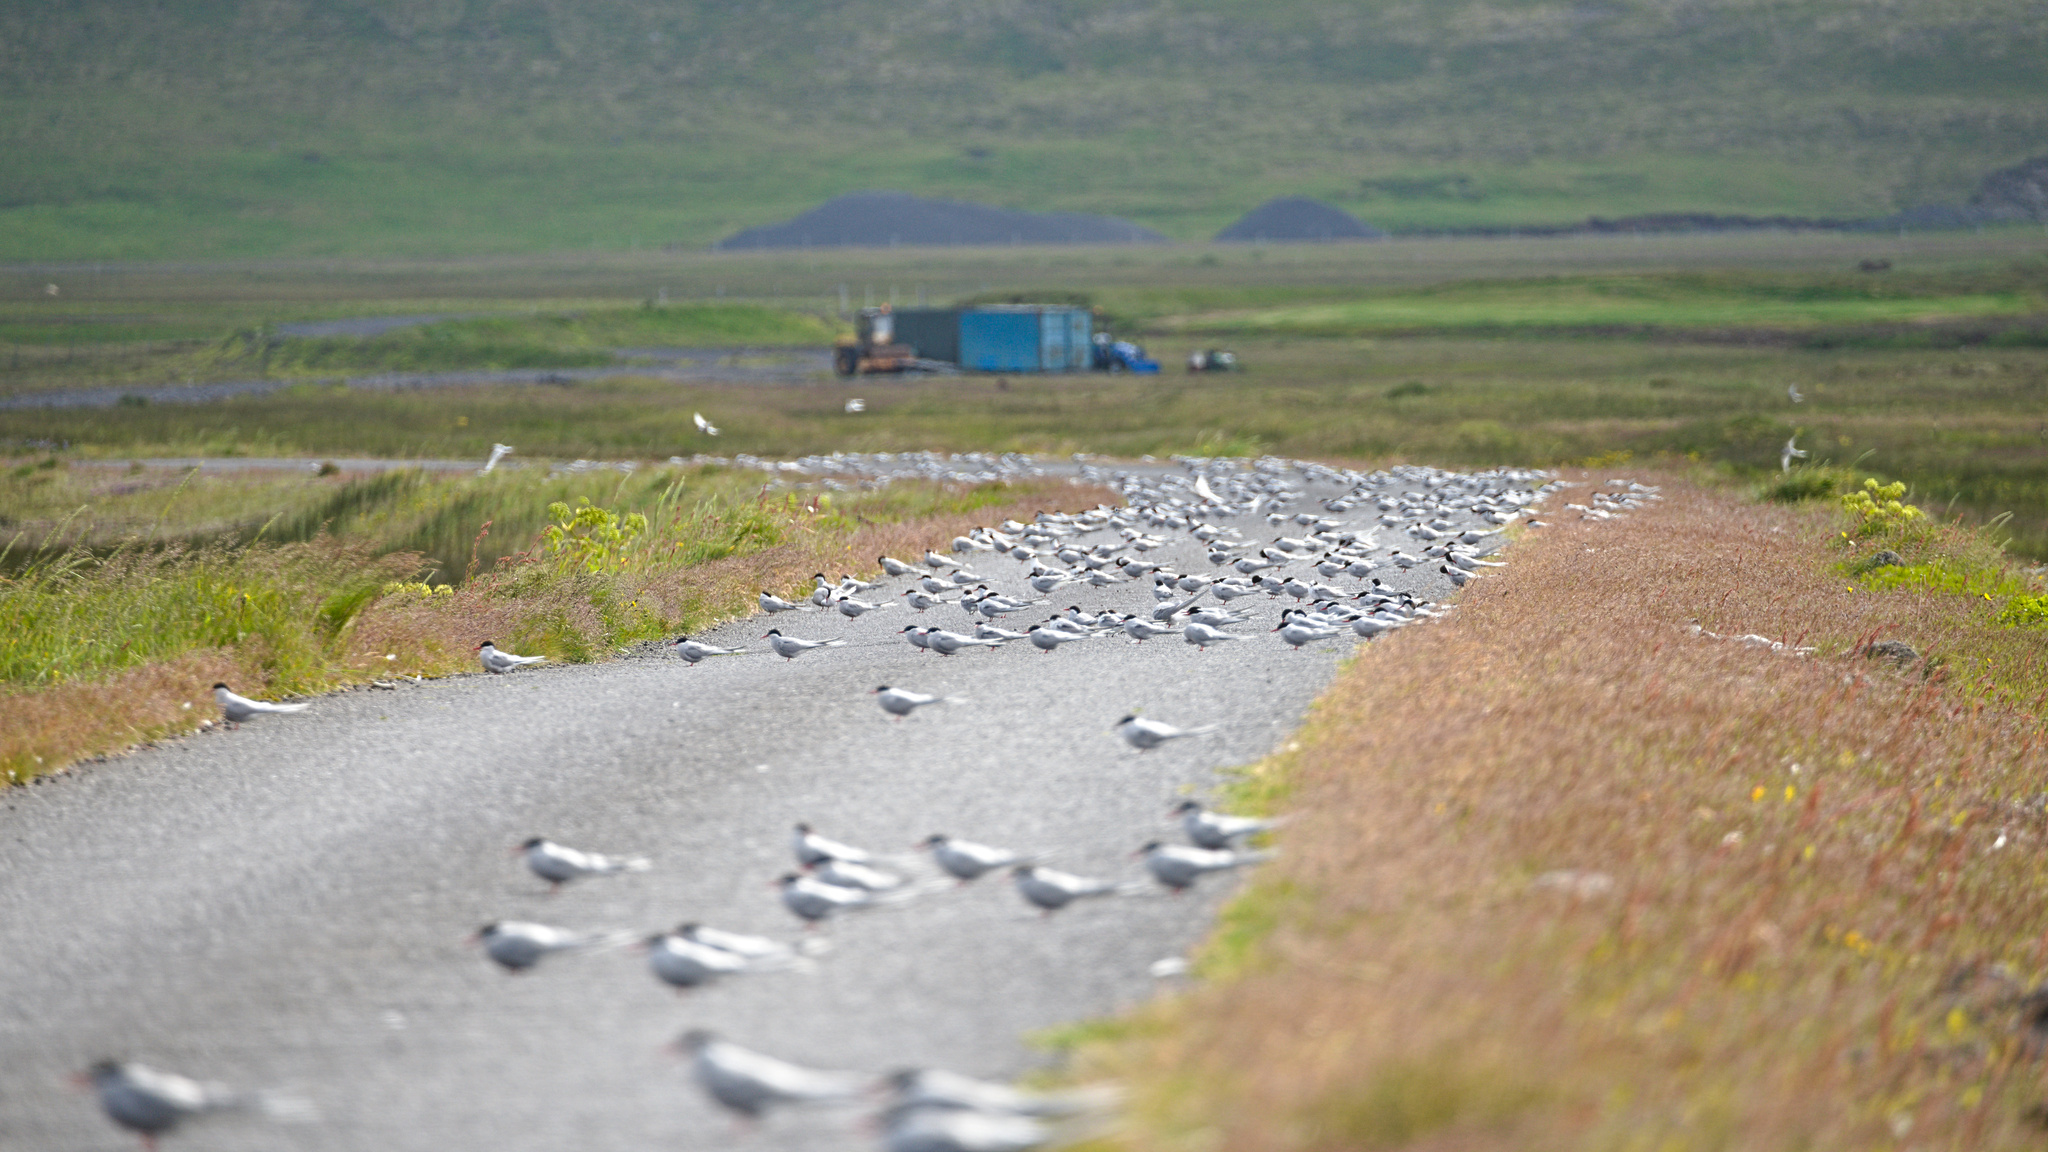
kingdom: Animalia
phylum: Chordata
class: Aves
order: Charadriiformes
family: Laridae
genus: Sterna
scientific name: Sterna paradisaea
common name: Arctic tern
